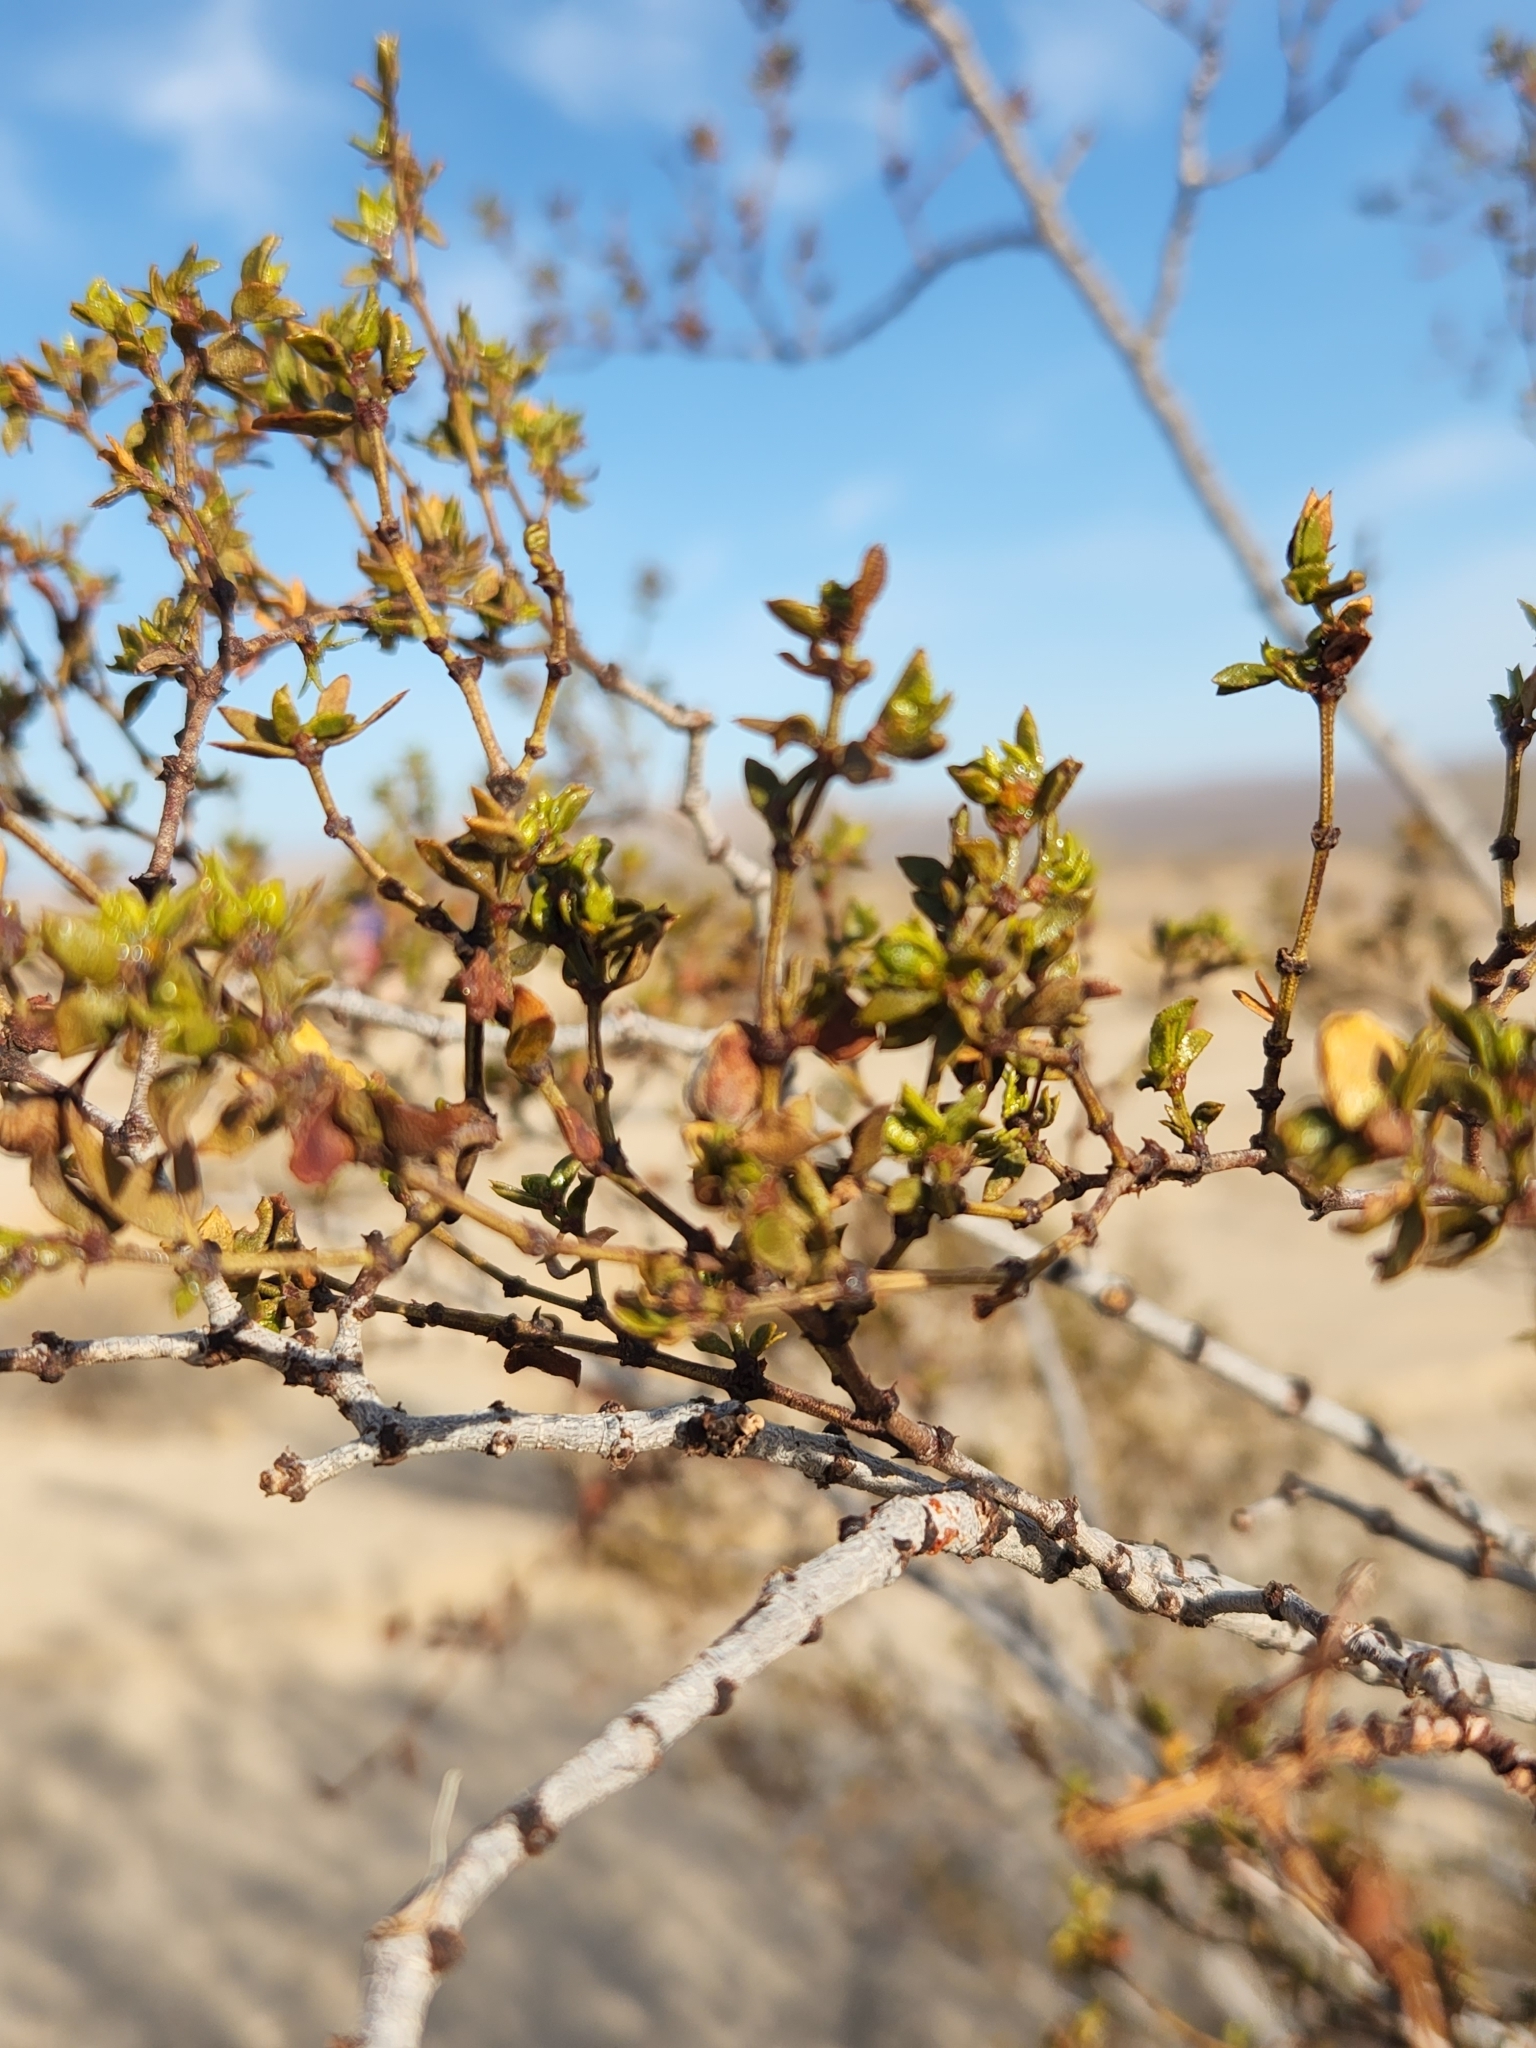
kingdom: Plantae
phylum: Tracheophyta
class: Magnoliopsida
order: Zygophyllales
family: Zygophyllaceae
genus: Larrea
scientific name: Larrea tridentata
